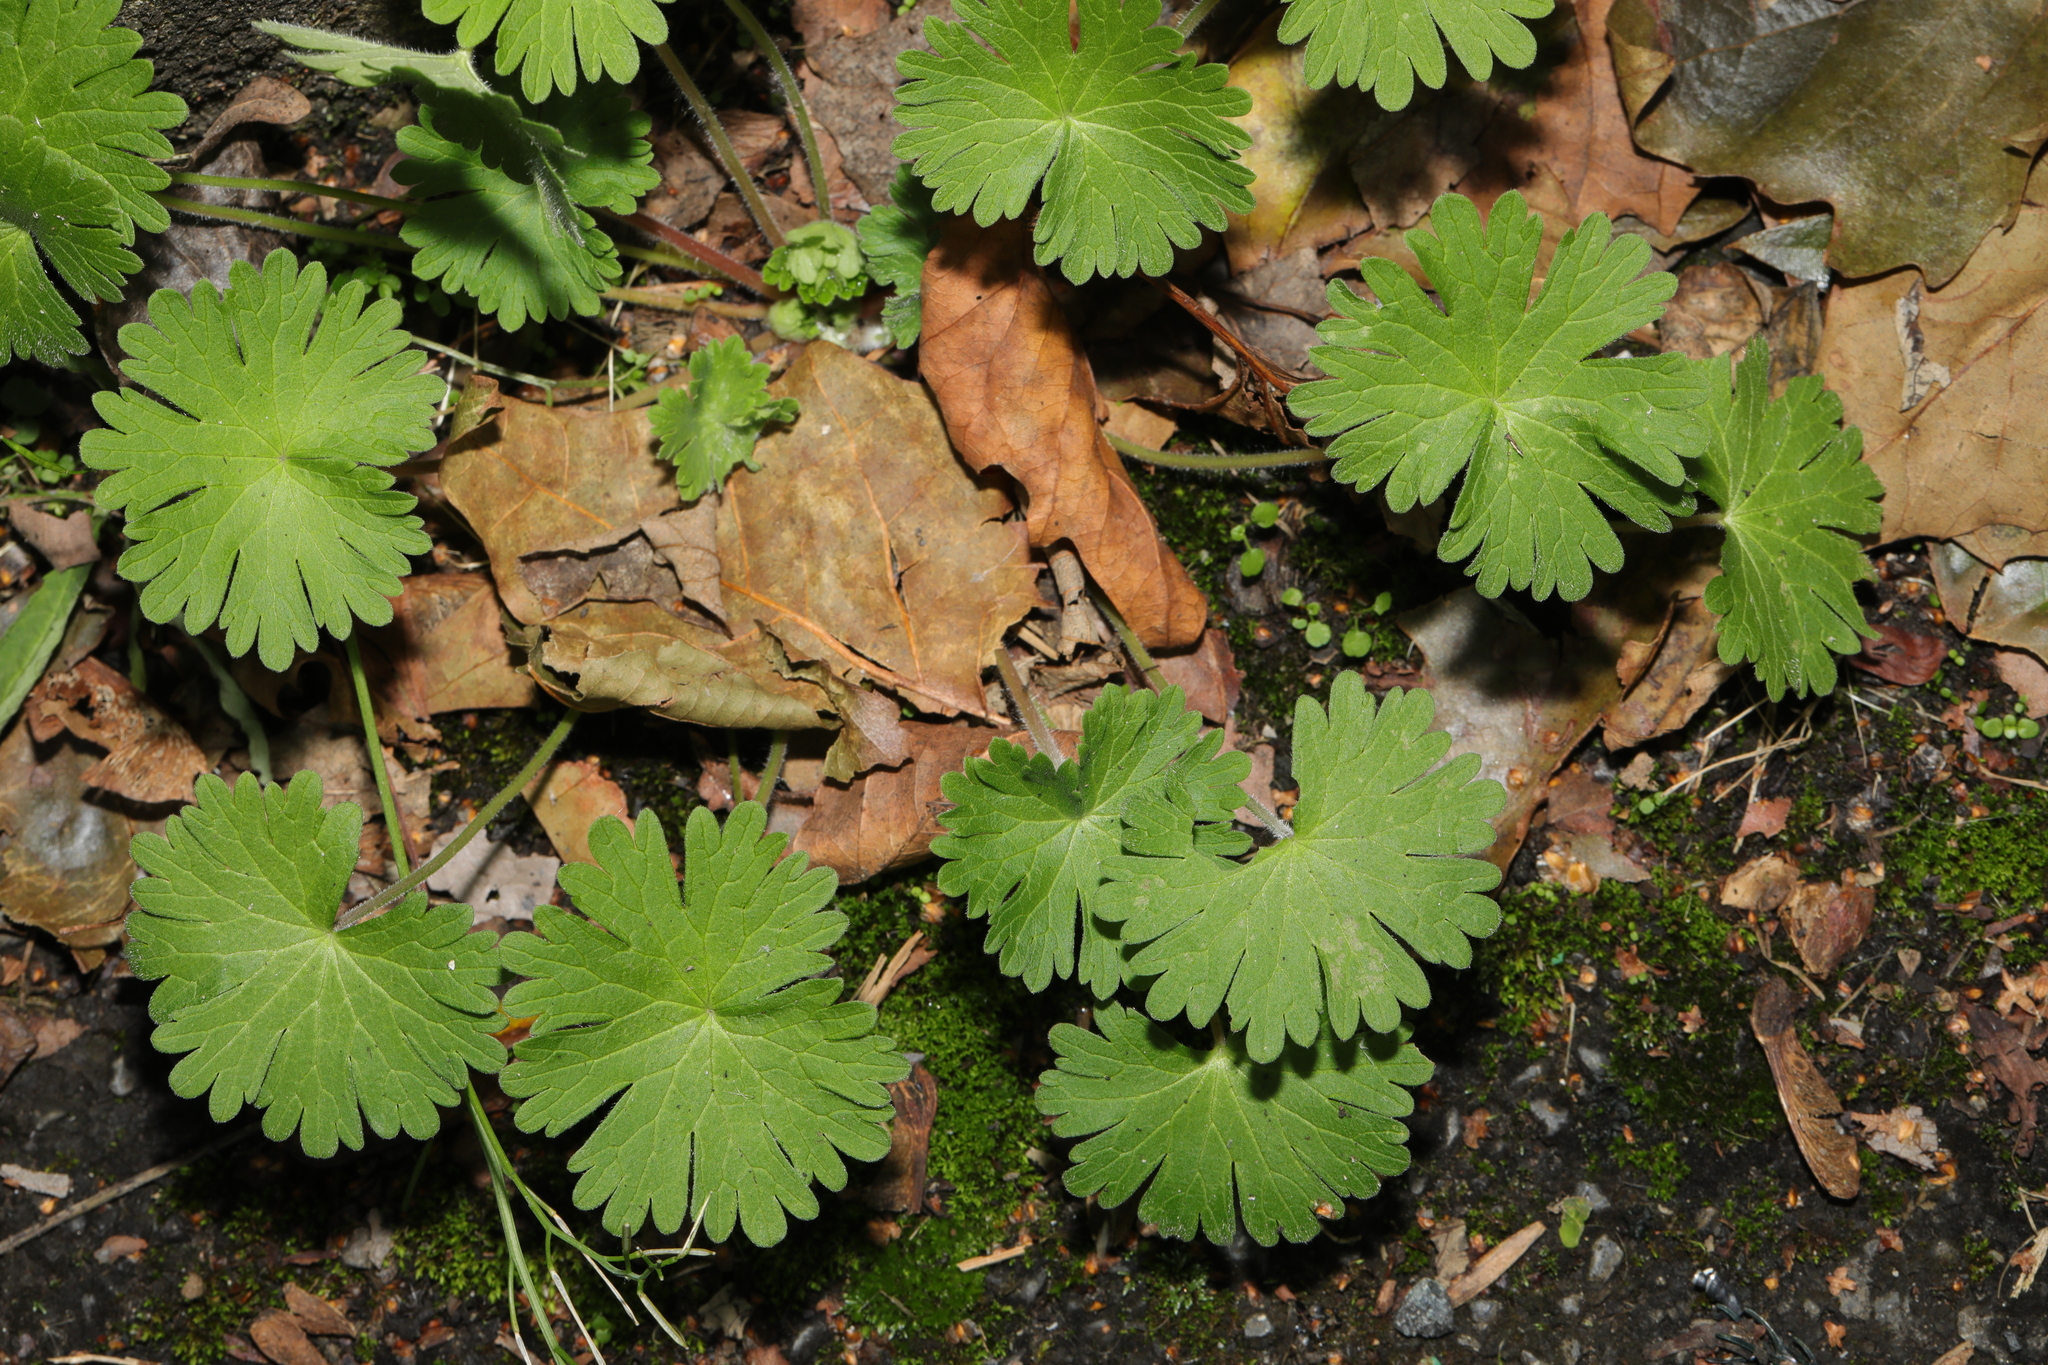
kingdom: Plantae
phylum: Tracheophyta
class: Magnoliopsida
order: Geraniales
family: Geraniaceae
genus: Geranium
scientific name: Geranium molle
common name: Dove's-foot crane's-bill
